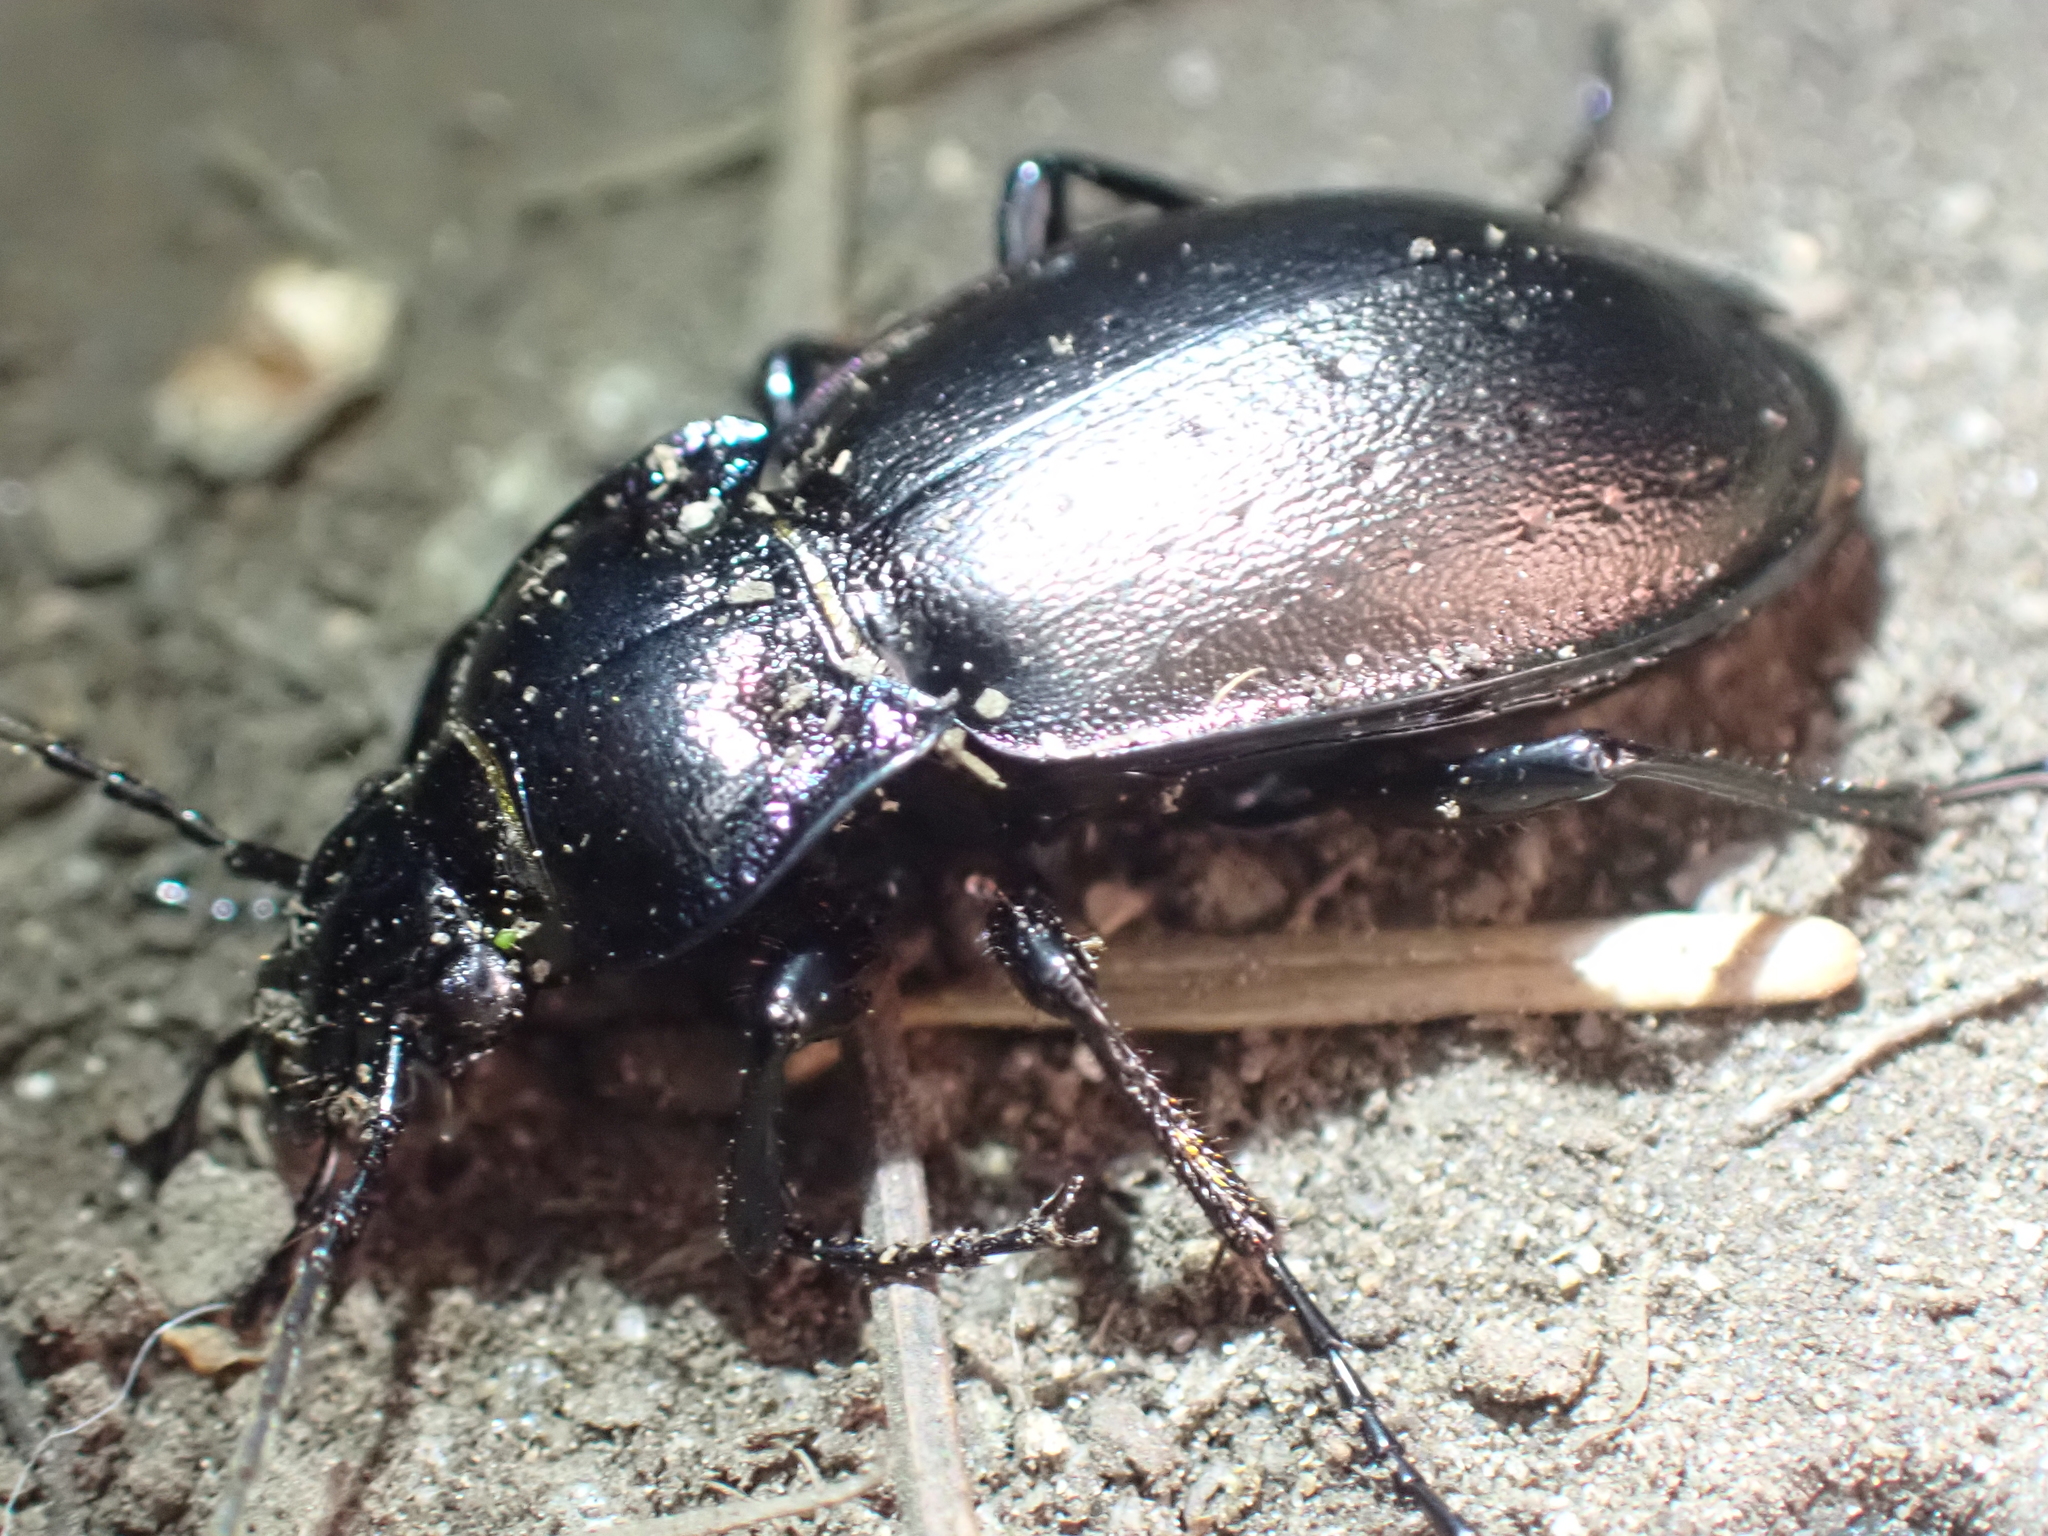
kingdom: Animalia
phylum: Arthropoda
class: Insecta
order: Coleoptera
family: Carabidae
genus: Carabus
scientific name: Carabus nemoralis
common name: European ground beetle
